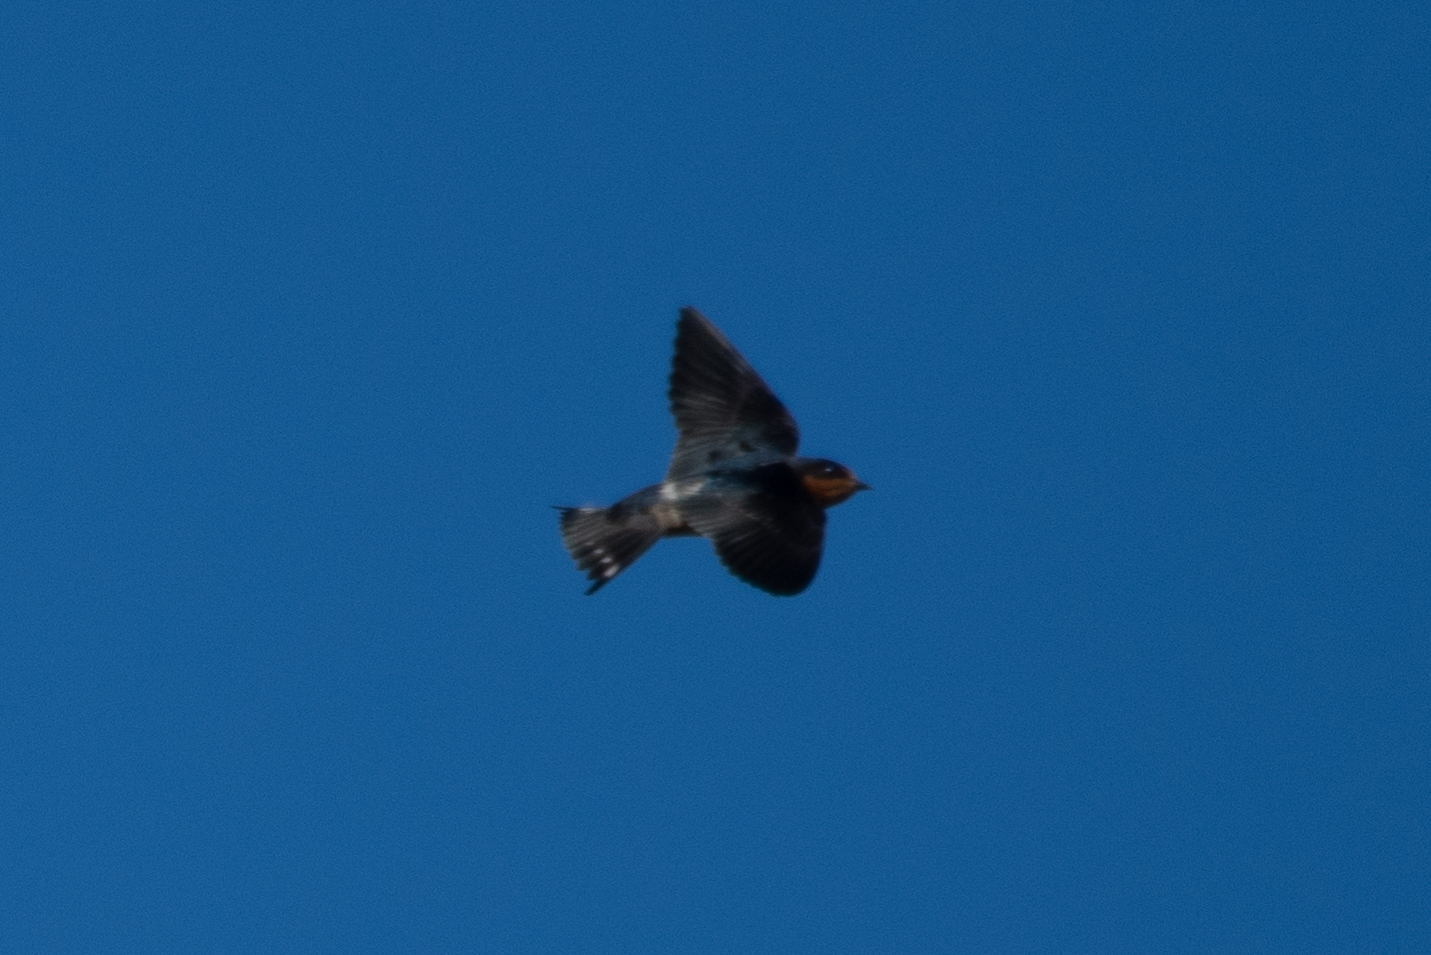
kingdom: Animalia
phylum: Chordata
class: Aves
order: Passeriformes
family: Hirundinidae
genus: Hirundo
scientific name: Hirundo rustica
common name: Barn swallow
